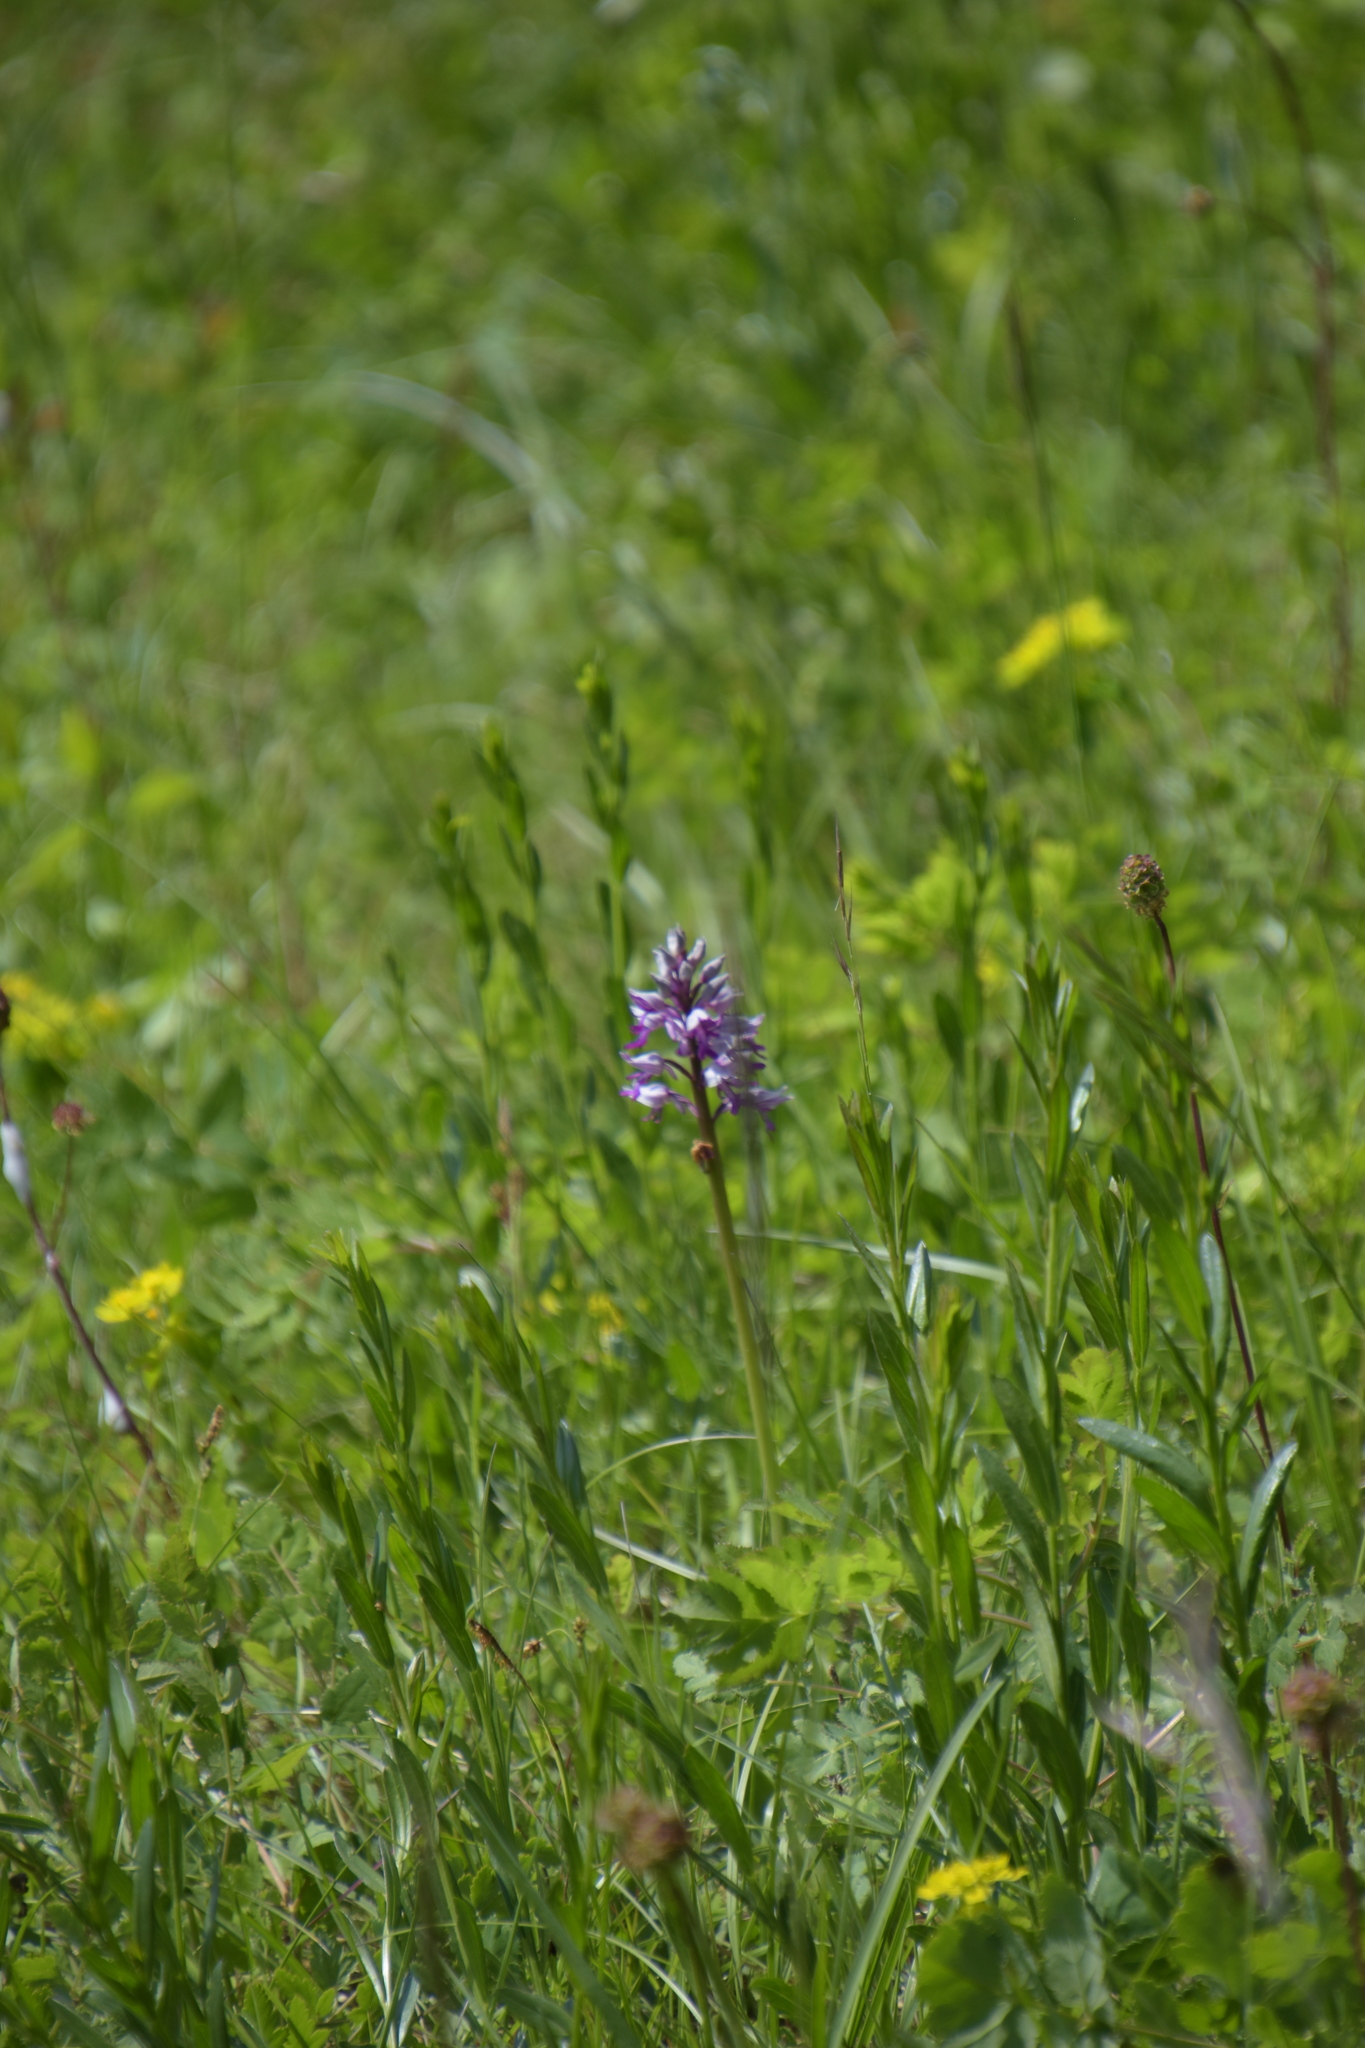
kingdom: Plantae
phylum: Tracheophyta
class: Liliopsida
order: Asparagales
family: Orchidaceae
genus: Orchis
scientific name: Orchis militaris
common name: Military orchid
